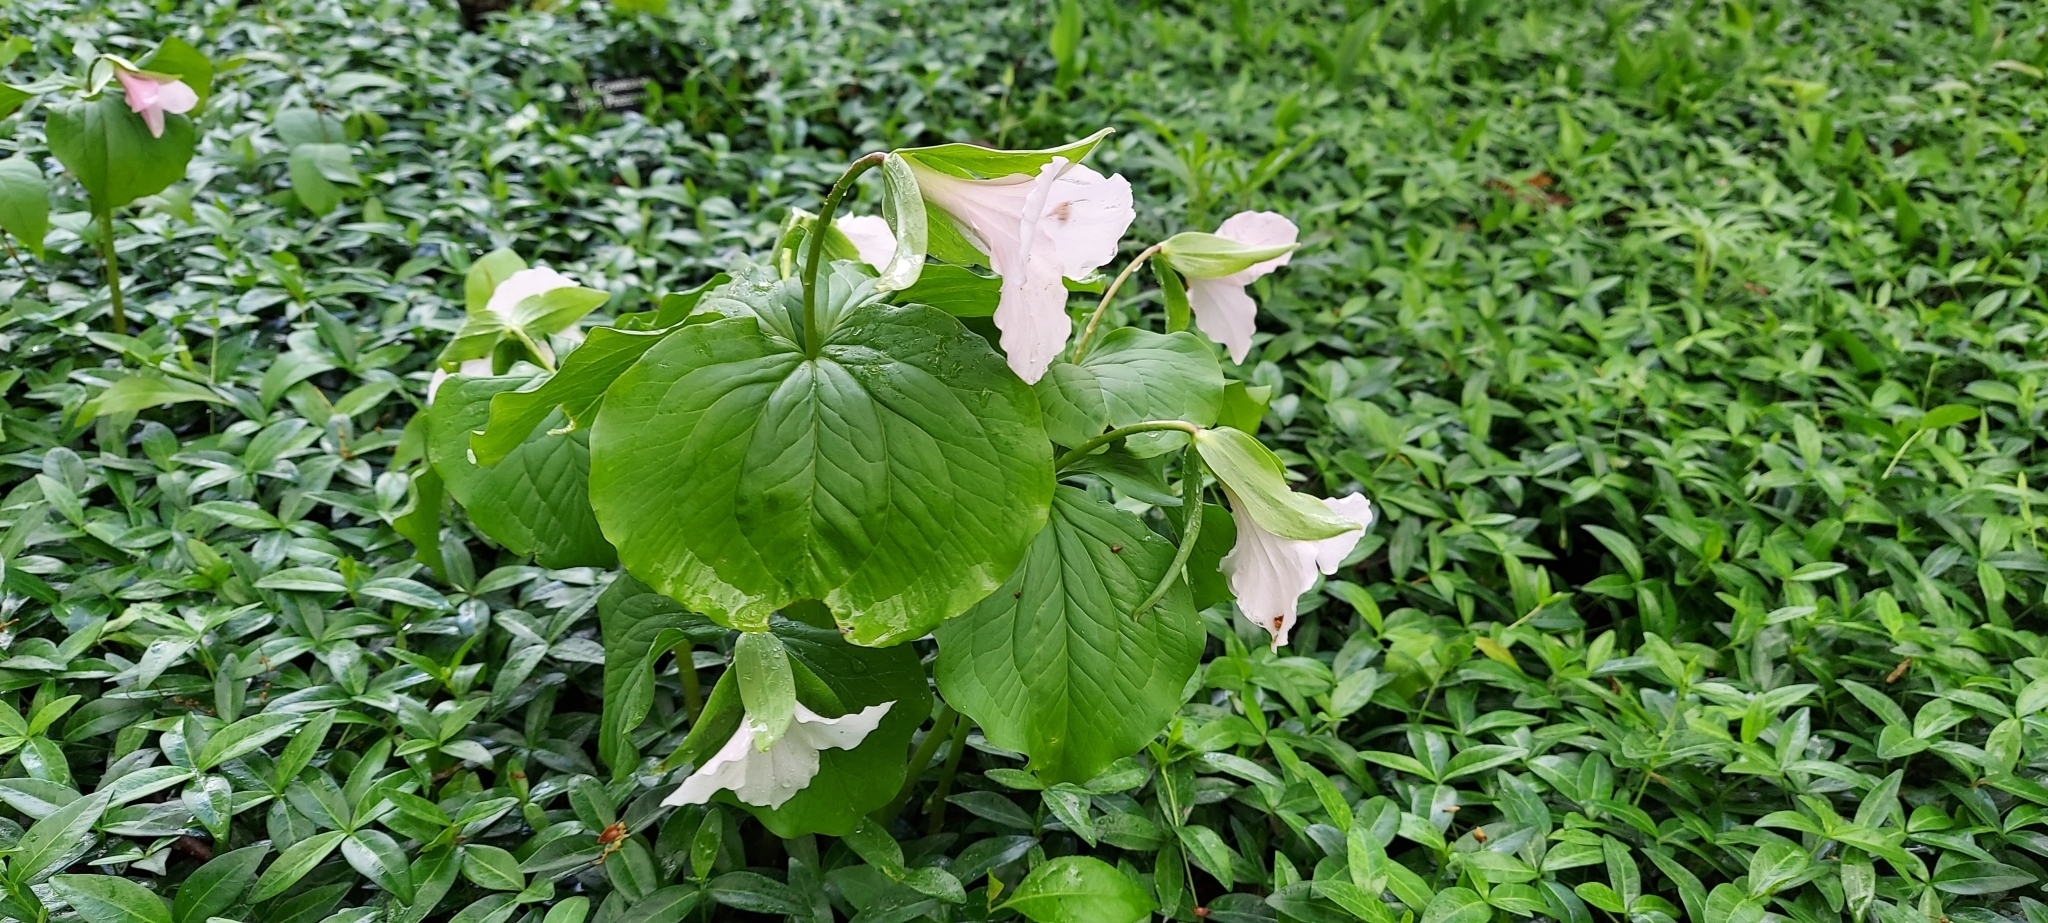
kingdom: Plantae
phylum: Tracheophyta
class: Liliopsida
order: Liliales
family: Melanthiaceae
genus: Trillium
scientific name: Trillium grandiflorum
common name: Great white trillium
